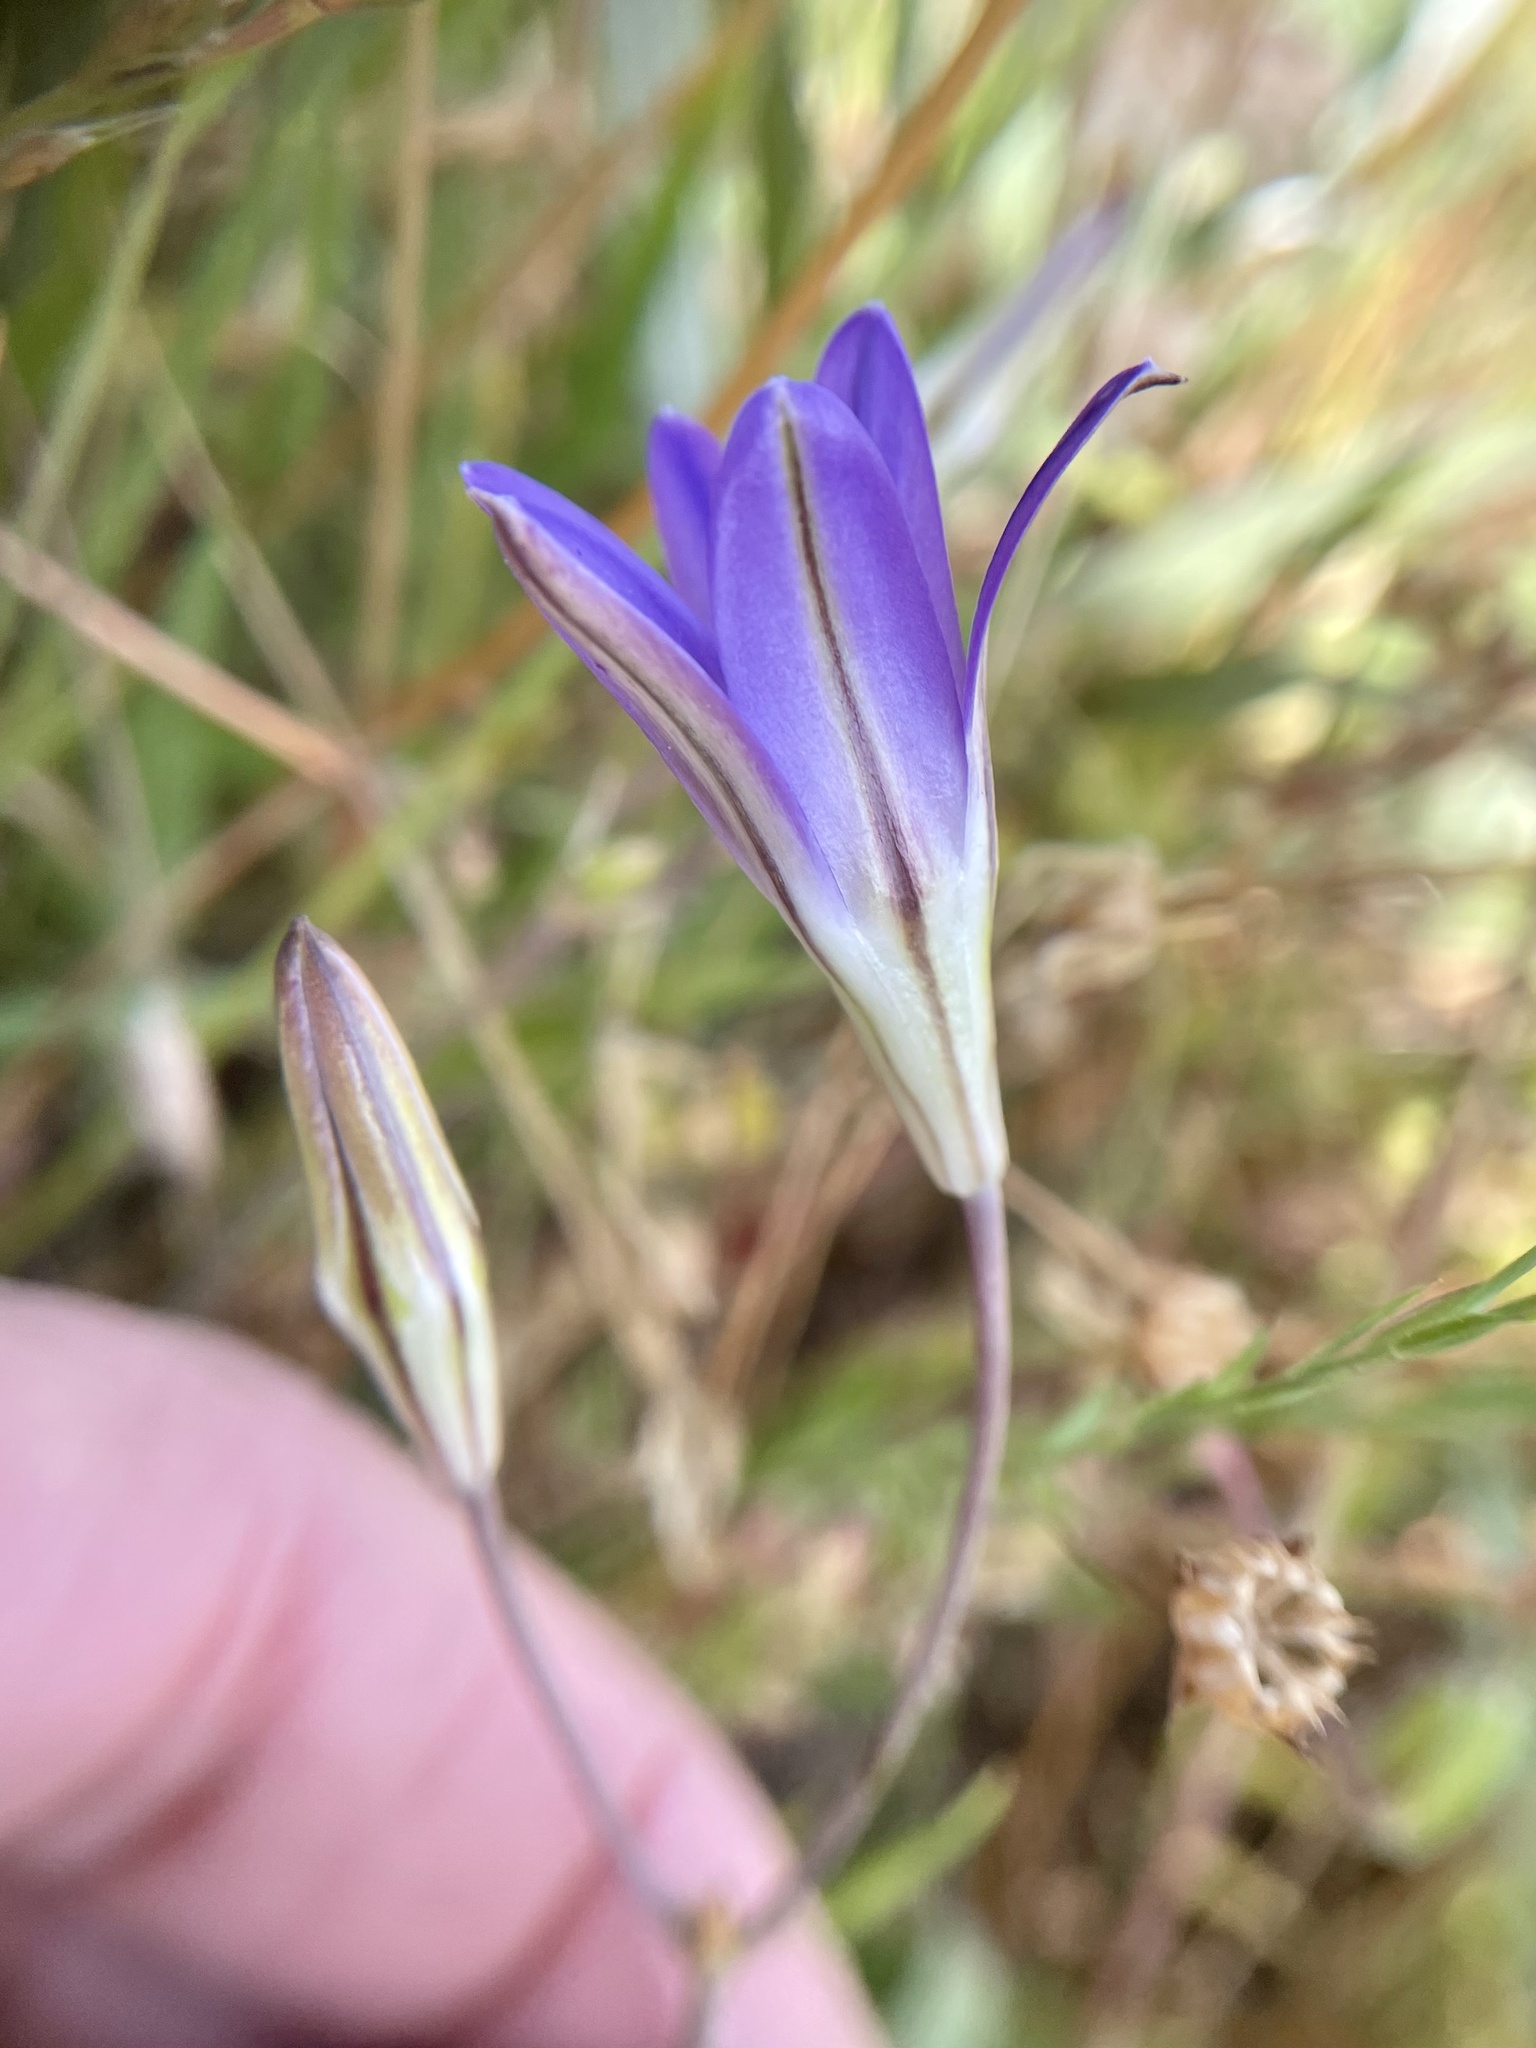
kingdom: Plantae
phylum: Tracheophyta
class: Liliopsida
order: Asparagales
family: Asparagaceae
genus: Brodiaea
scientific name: Brodiaea elegans
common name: Elegant cluster-lily
